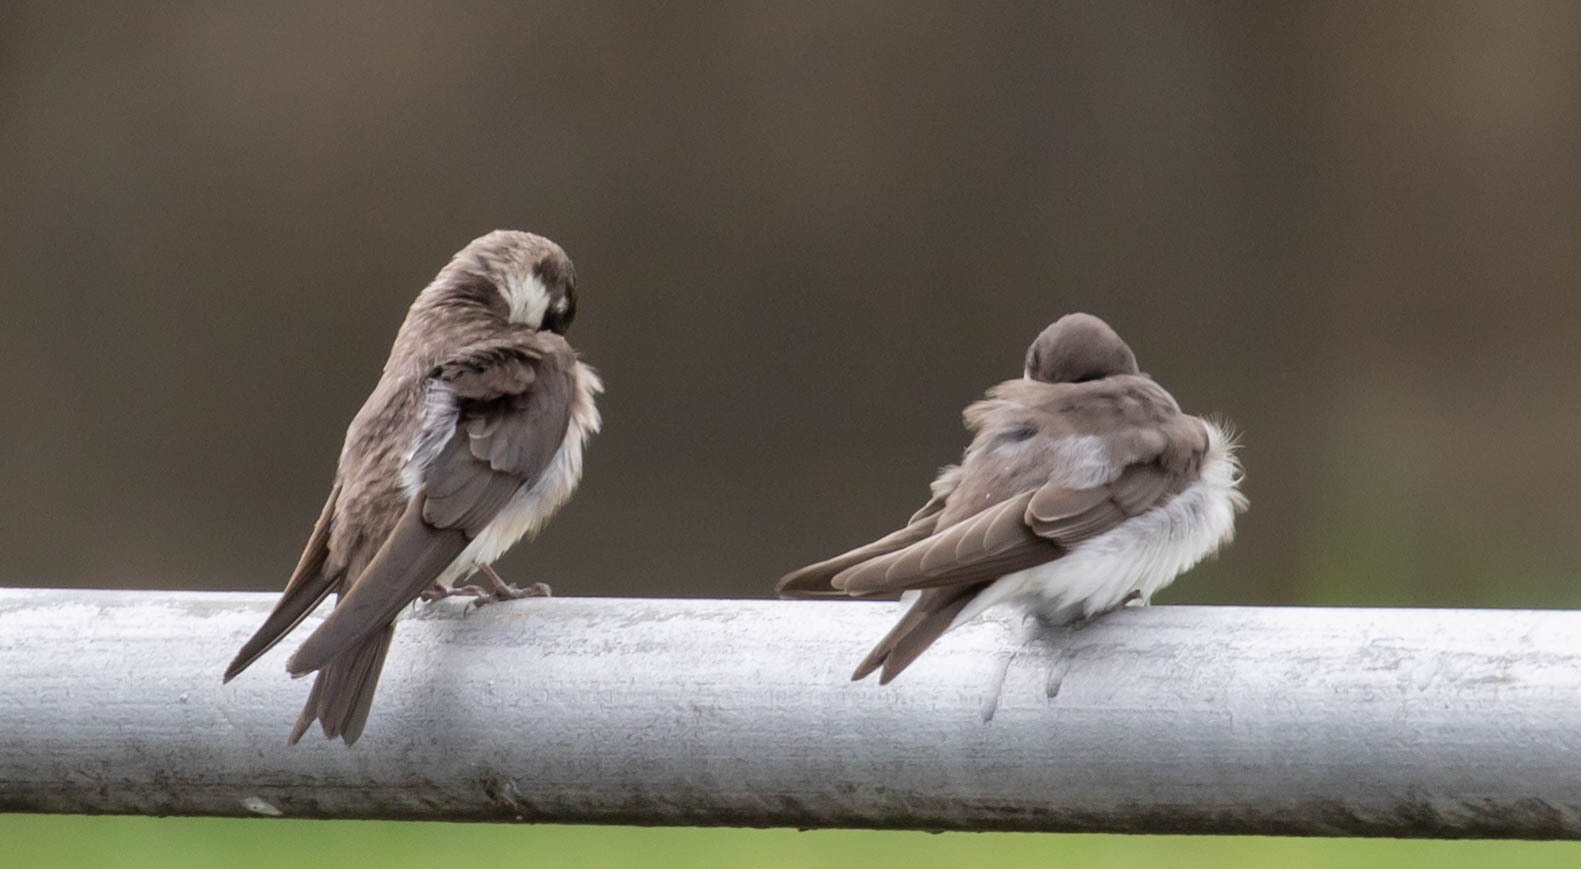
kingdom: Animalia
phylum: Chordata
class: Aves
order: Passeriformes
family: Hirundinidae
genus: Stelgidopteryx
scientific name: Stelgidopteryx serripennis
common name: Northern rough-winged swallow
